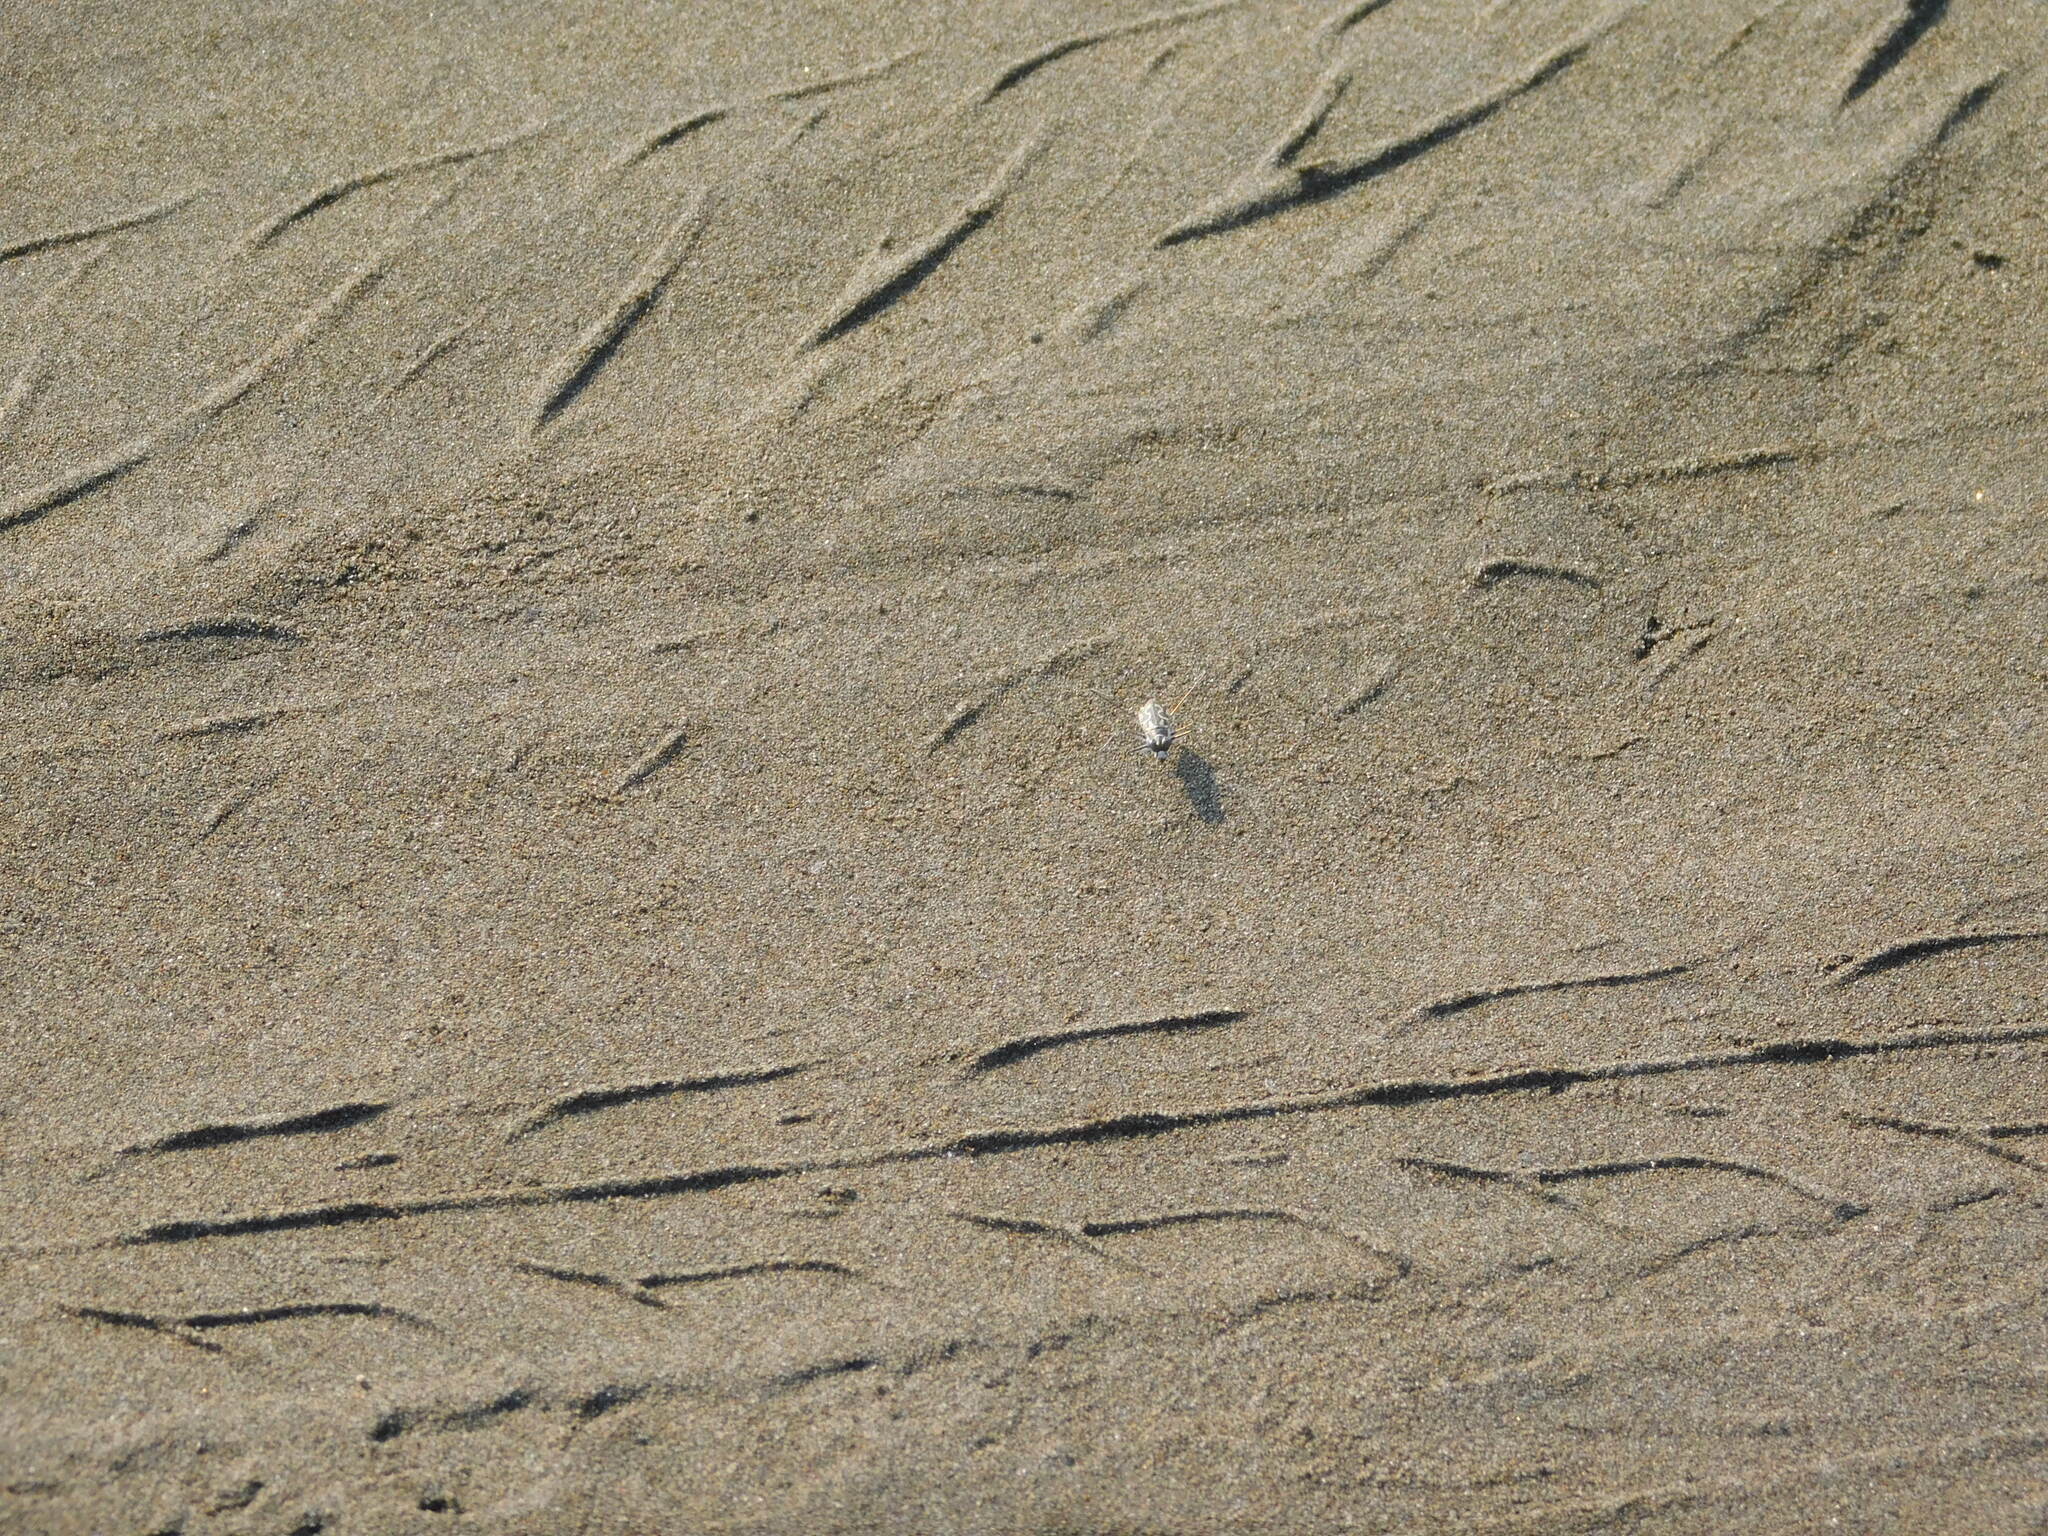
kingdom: Animalia
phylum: Arthropoda
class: Insecta
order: Coleoptera
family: Carabidae
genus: Abroscelis
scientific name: Abroscelis longipes
